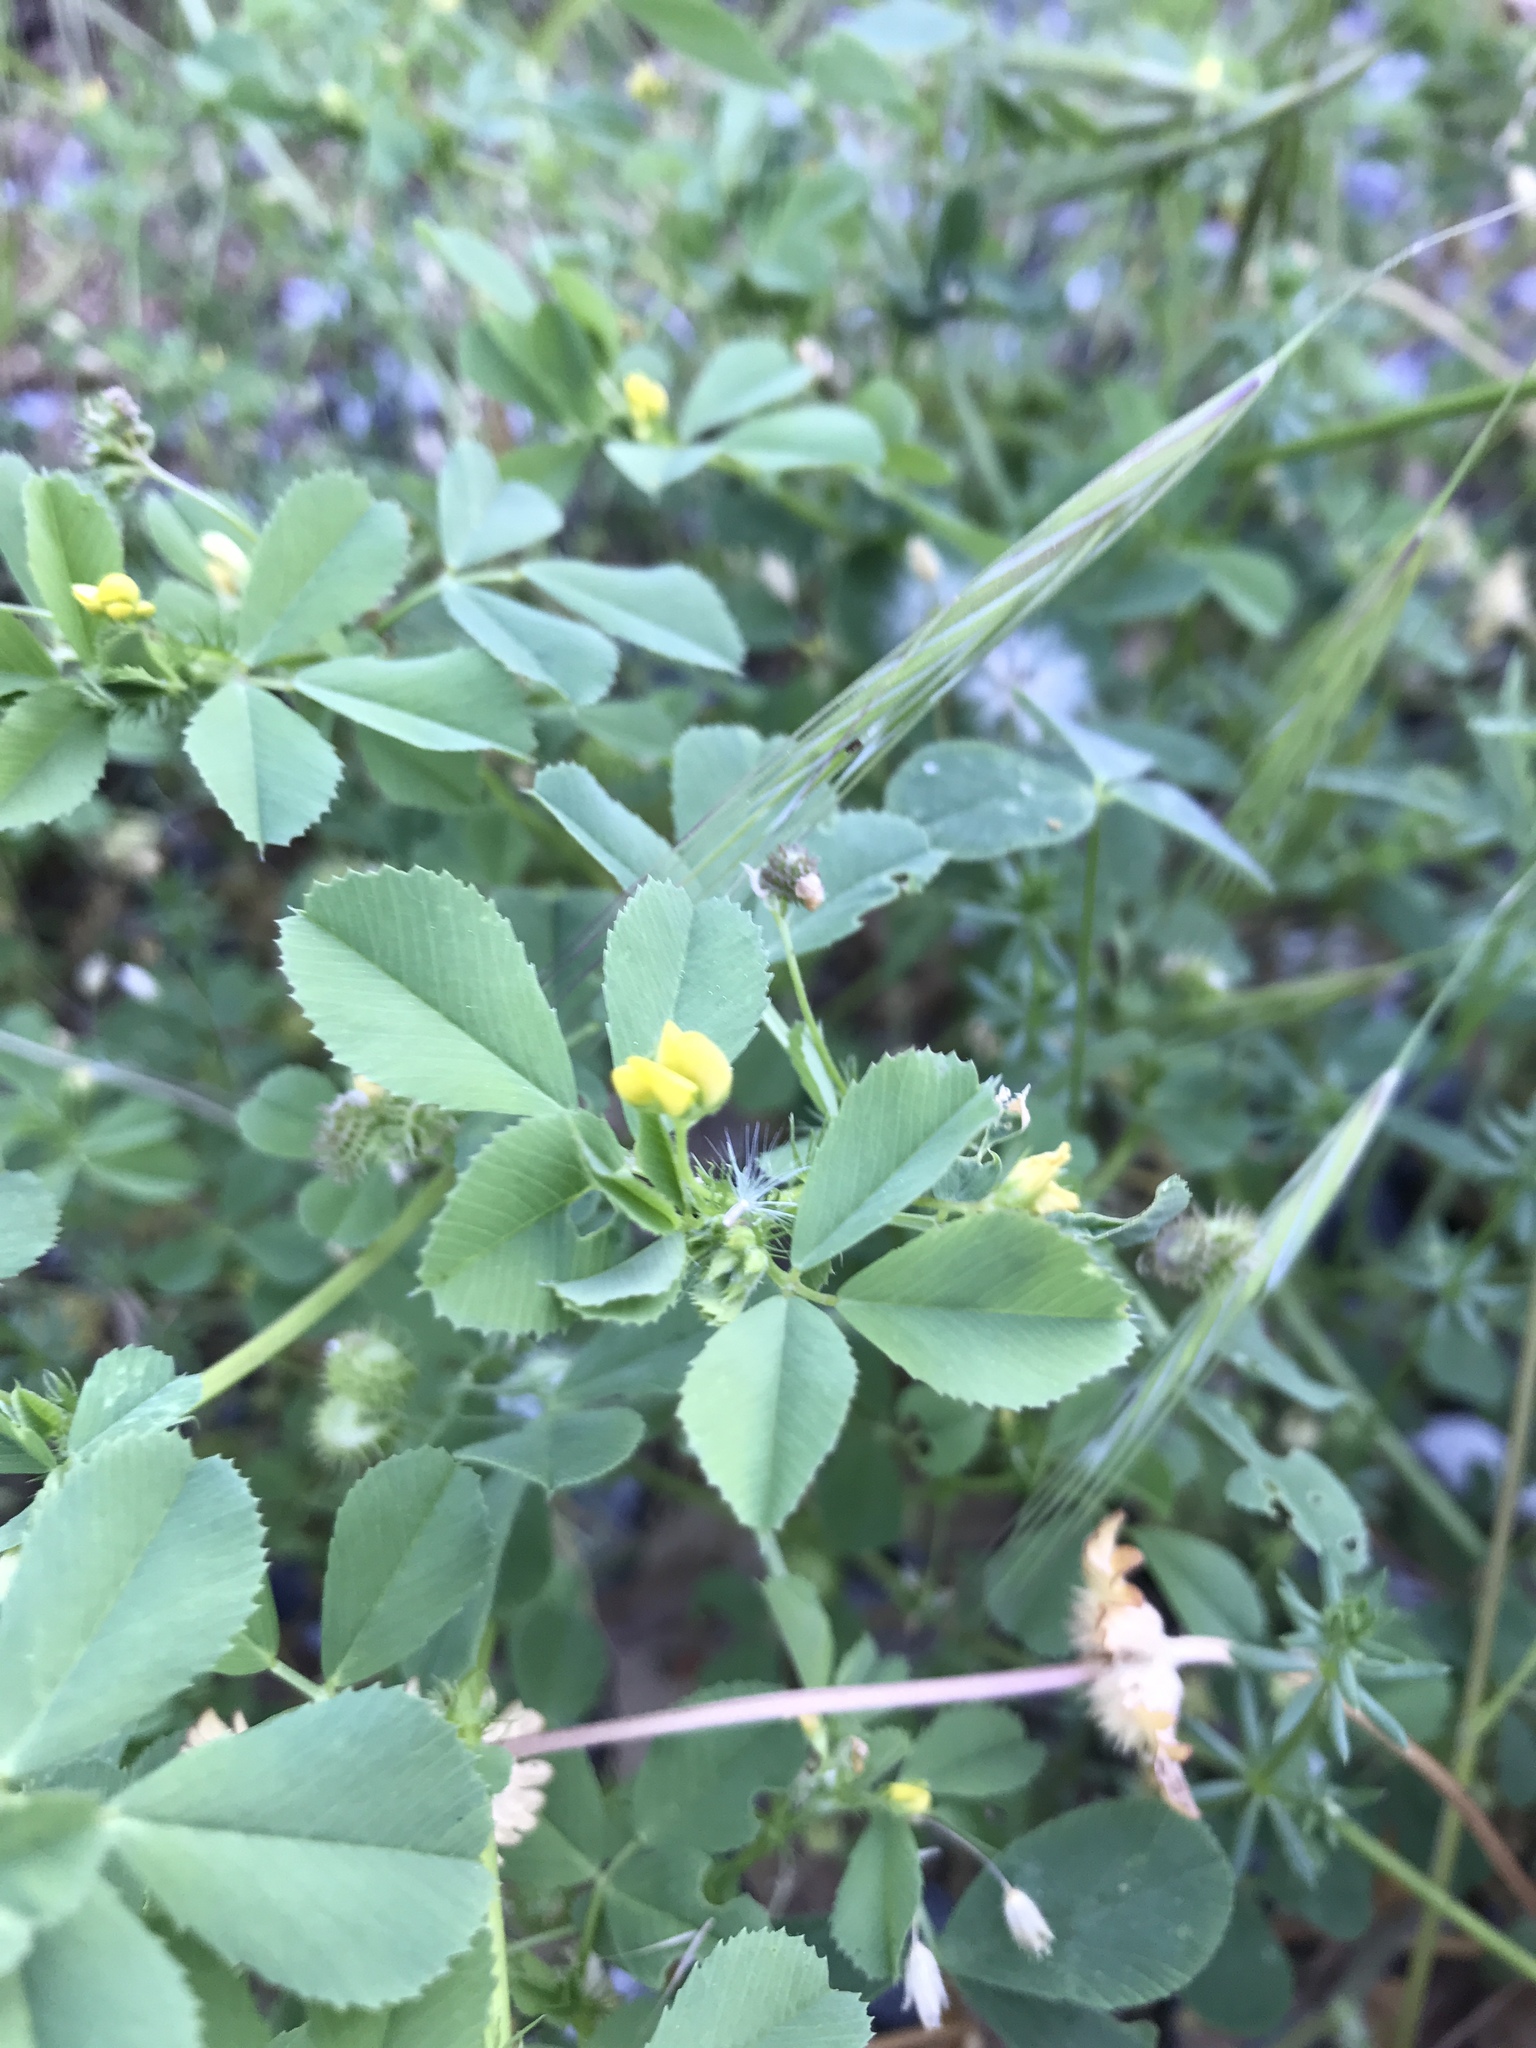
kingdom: Plantae
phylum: Tracheophyta
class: Magnoliopsida
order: Fabales
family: Fabaceae
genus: Medicago
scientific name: Medicago polymorpha
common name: Burclover
